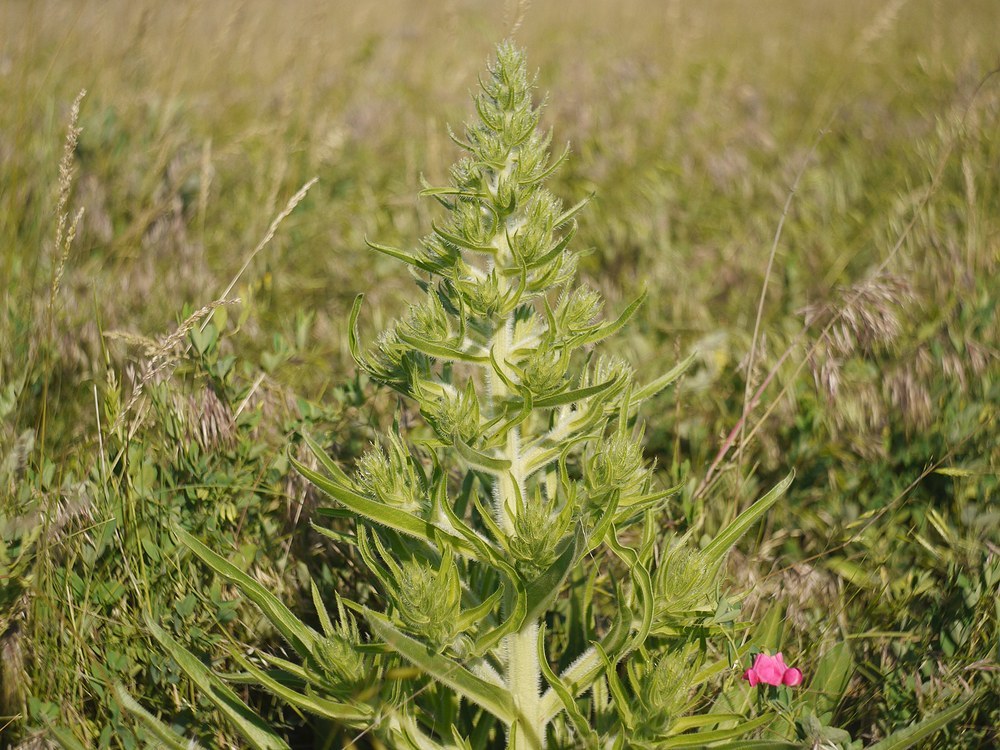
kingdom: Plantae
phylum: Tracheophyta
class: Magnoliopsida
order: Boraginales
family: Boraginaceae
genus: Echium
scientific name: Echium italicum
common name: Italian viper's bugloss
